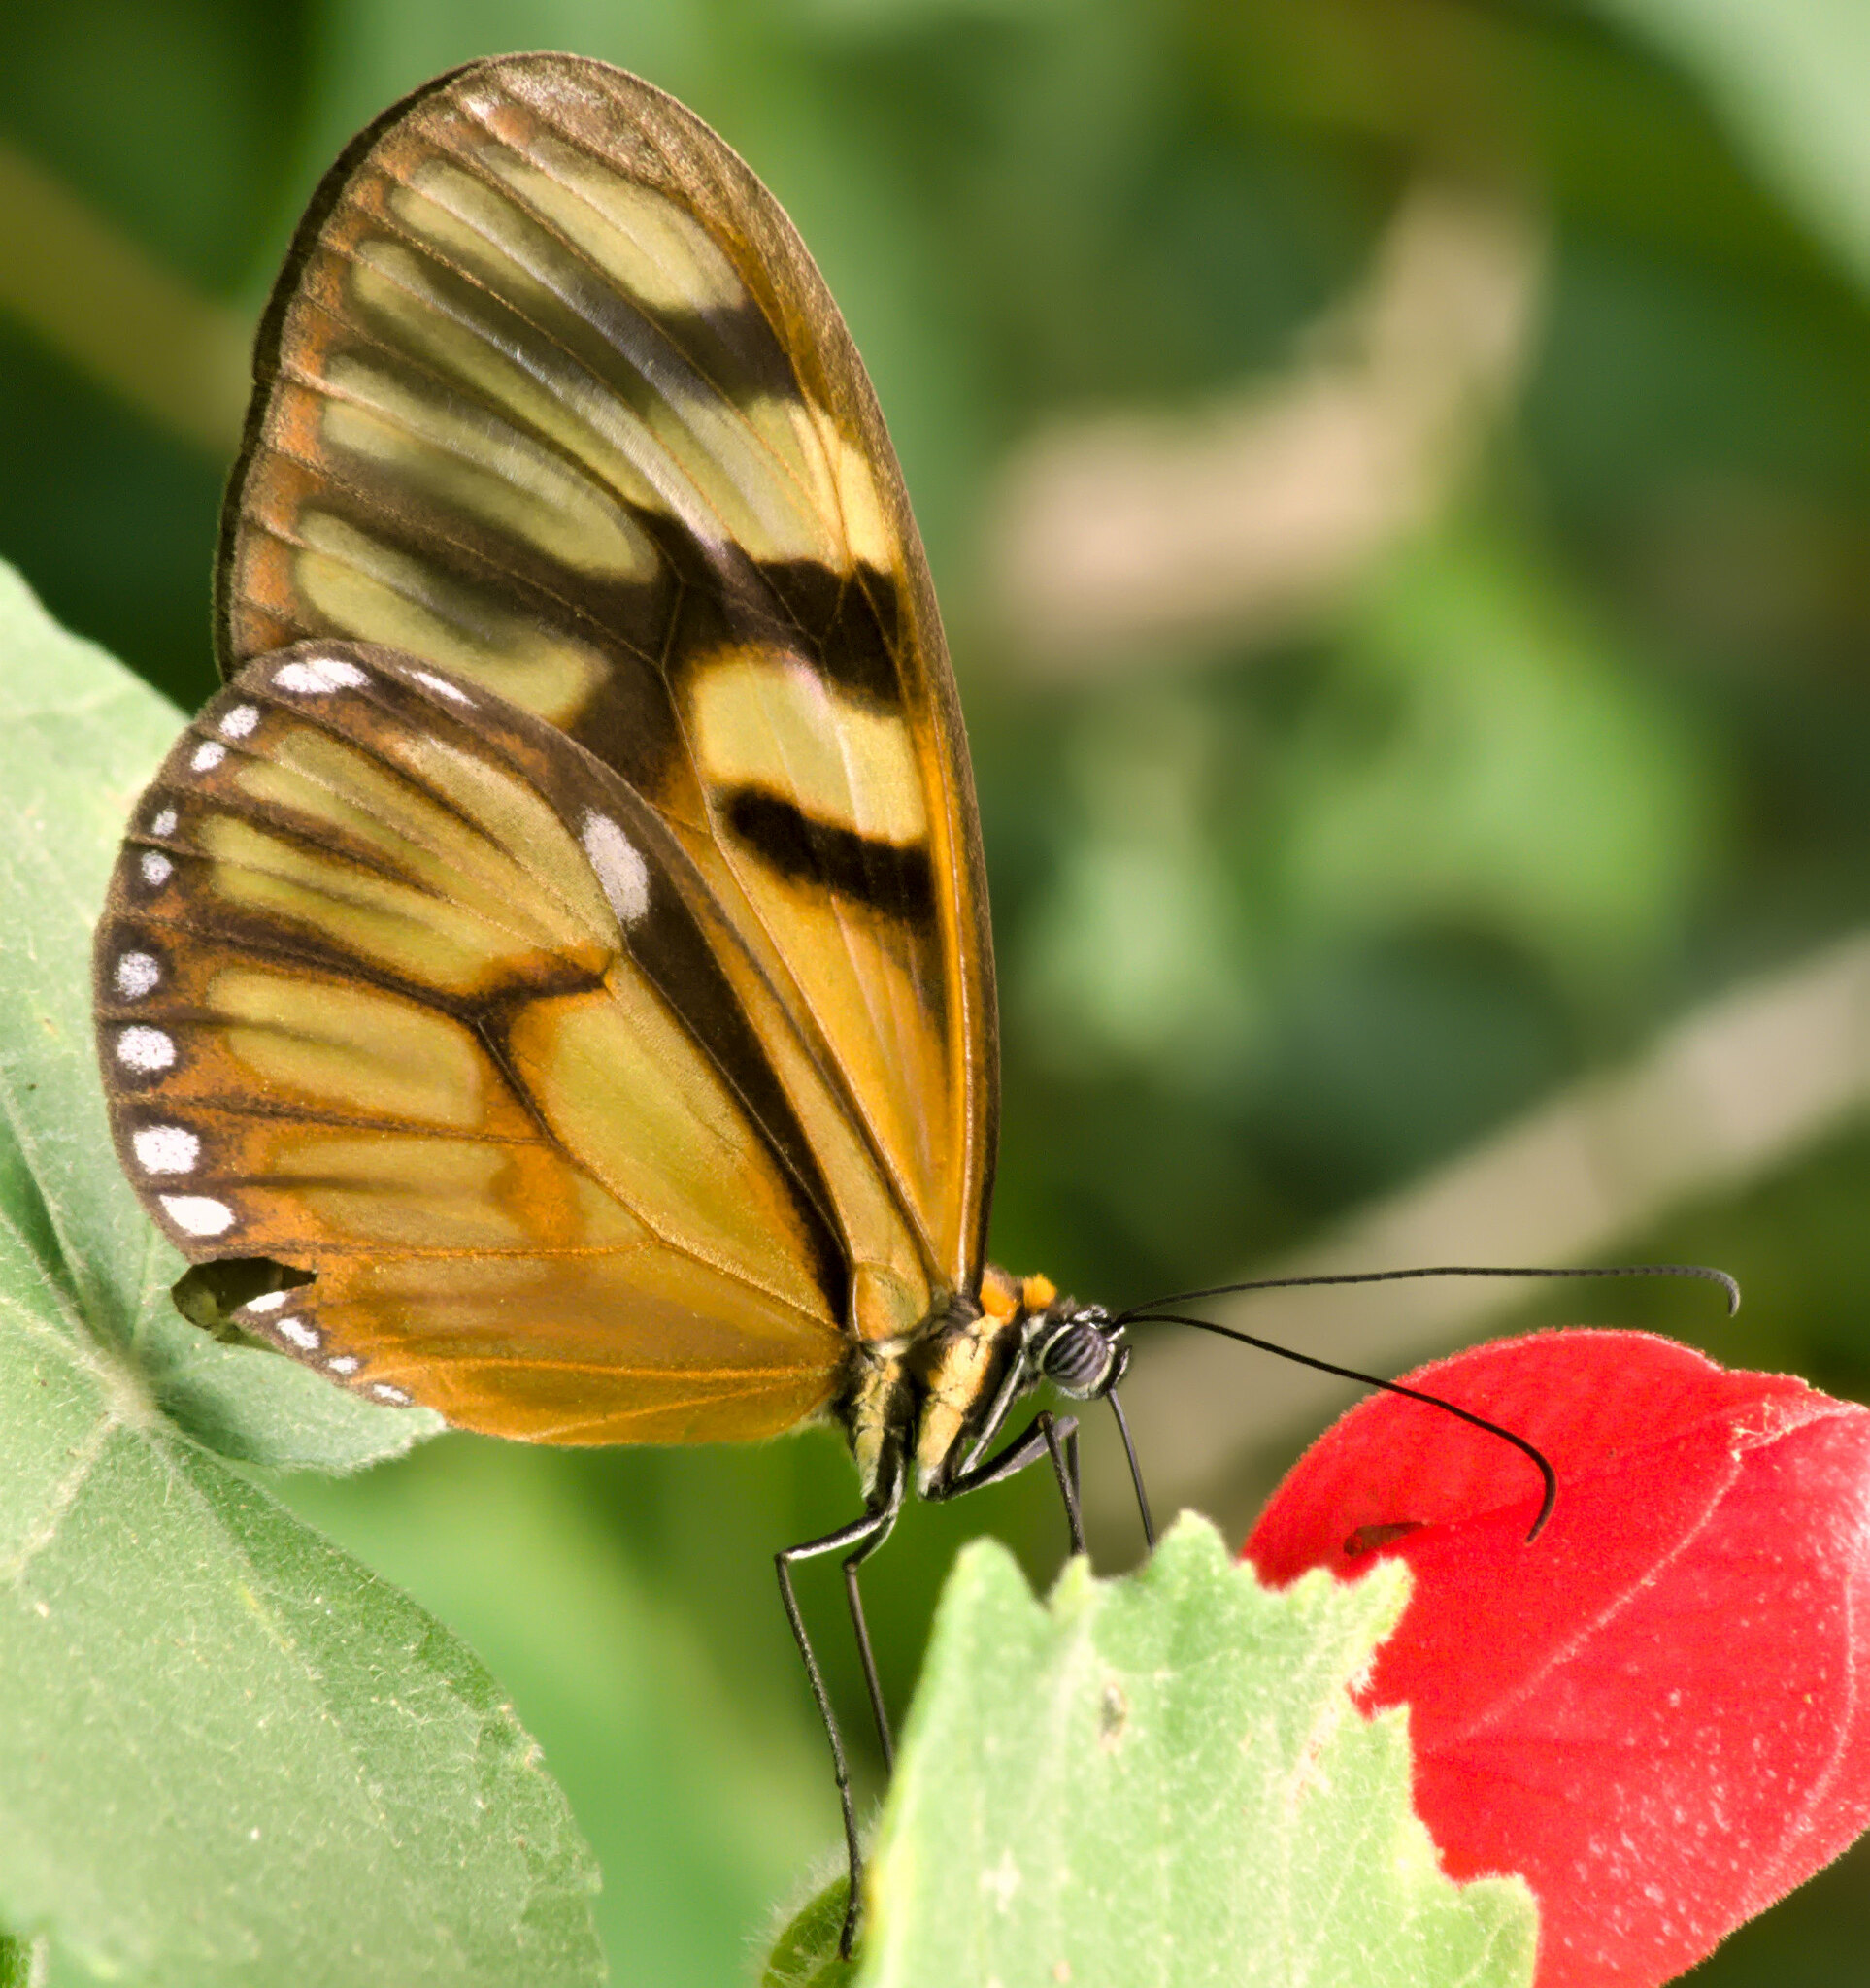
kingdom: Animalia
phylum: Arthropoda
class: Insecta
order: Lepidoptera
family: Nymphalidae
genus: Athesis
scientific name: Athesis clearista
